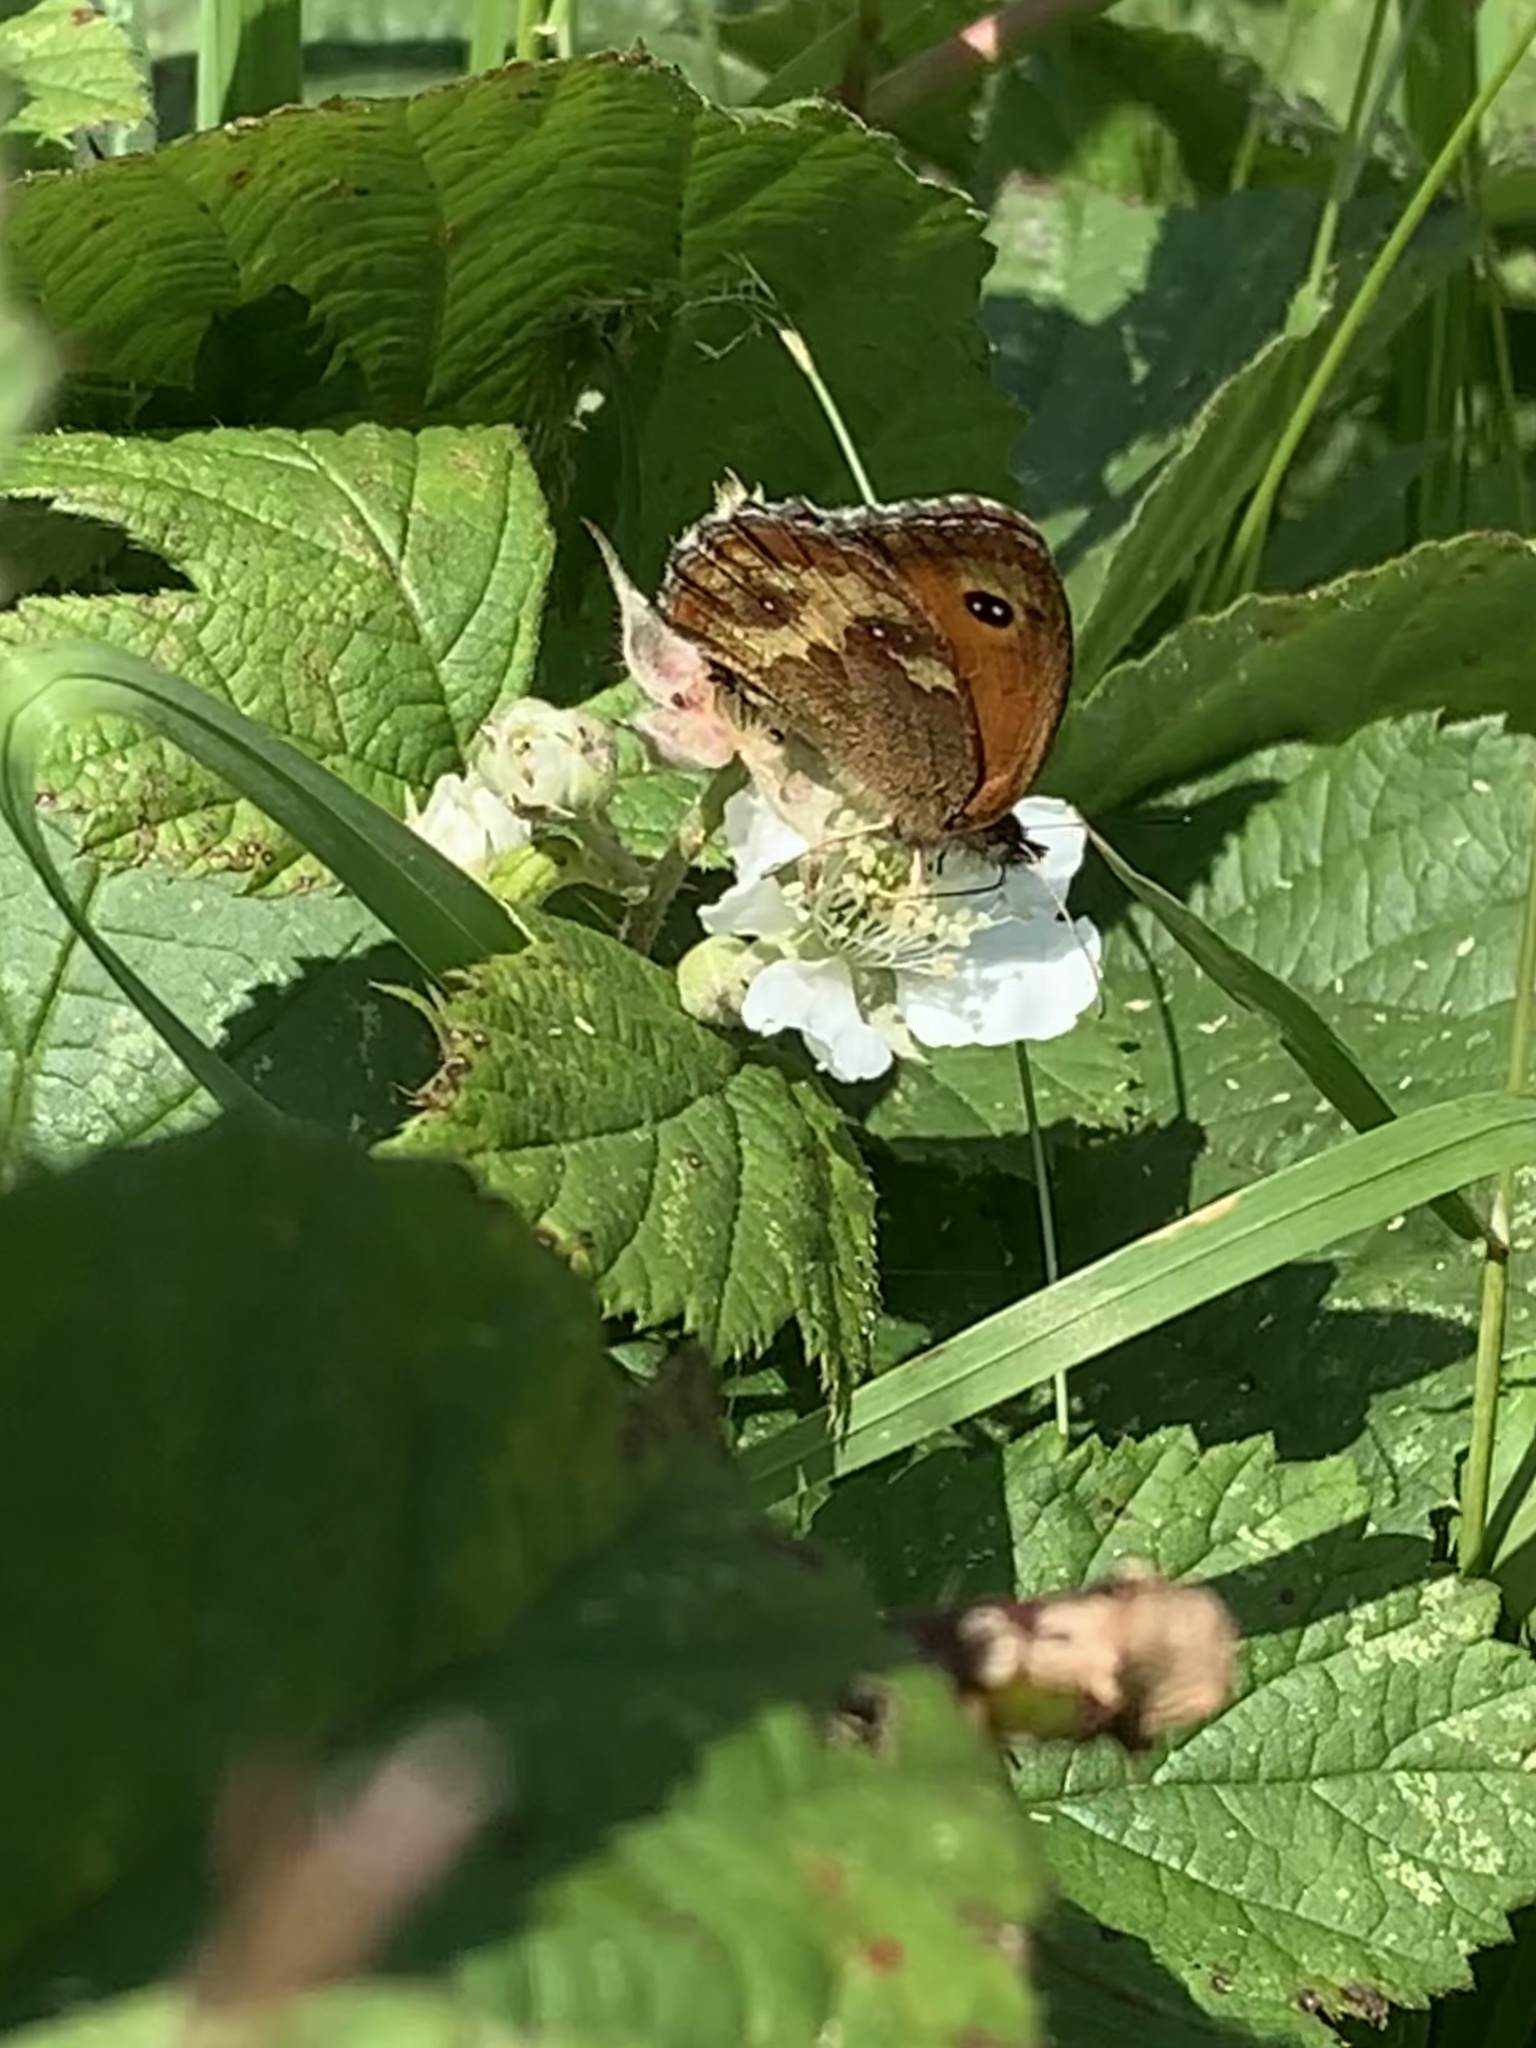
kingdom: Animalia
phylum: Arthropoda
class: Insecta
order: Lepidoptera
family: Nymphalidae
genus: Pyronia
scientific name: Pyronia tithonus
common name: Gatekeeper
